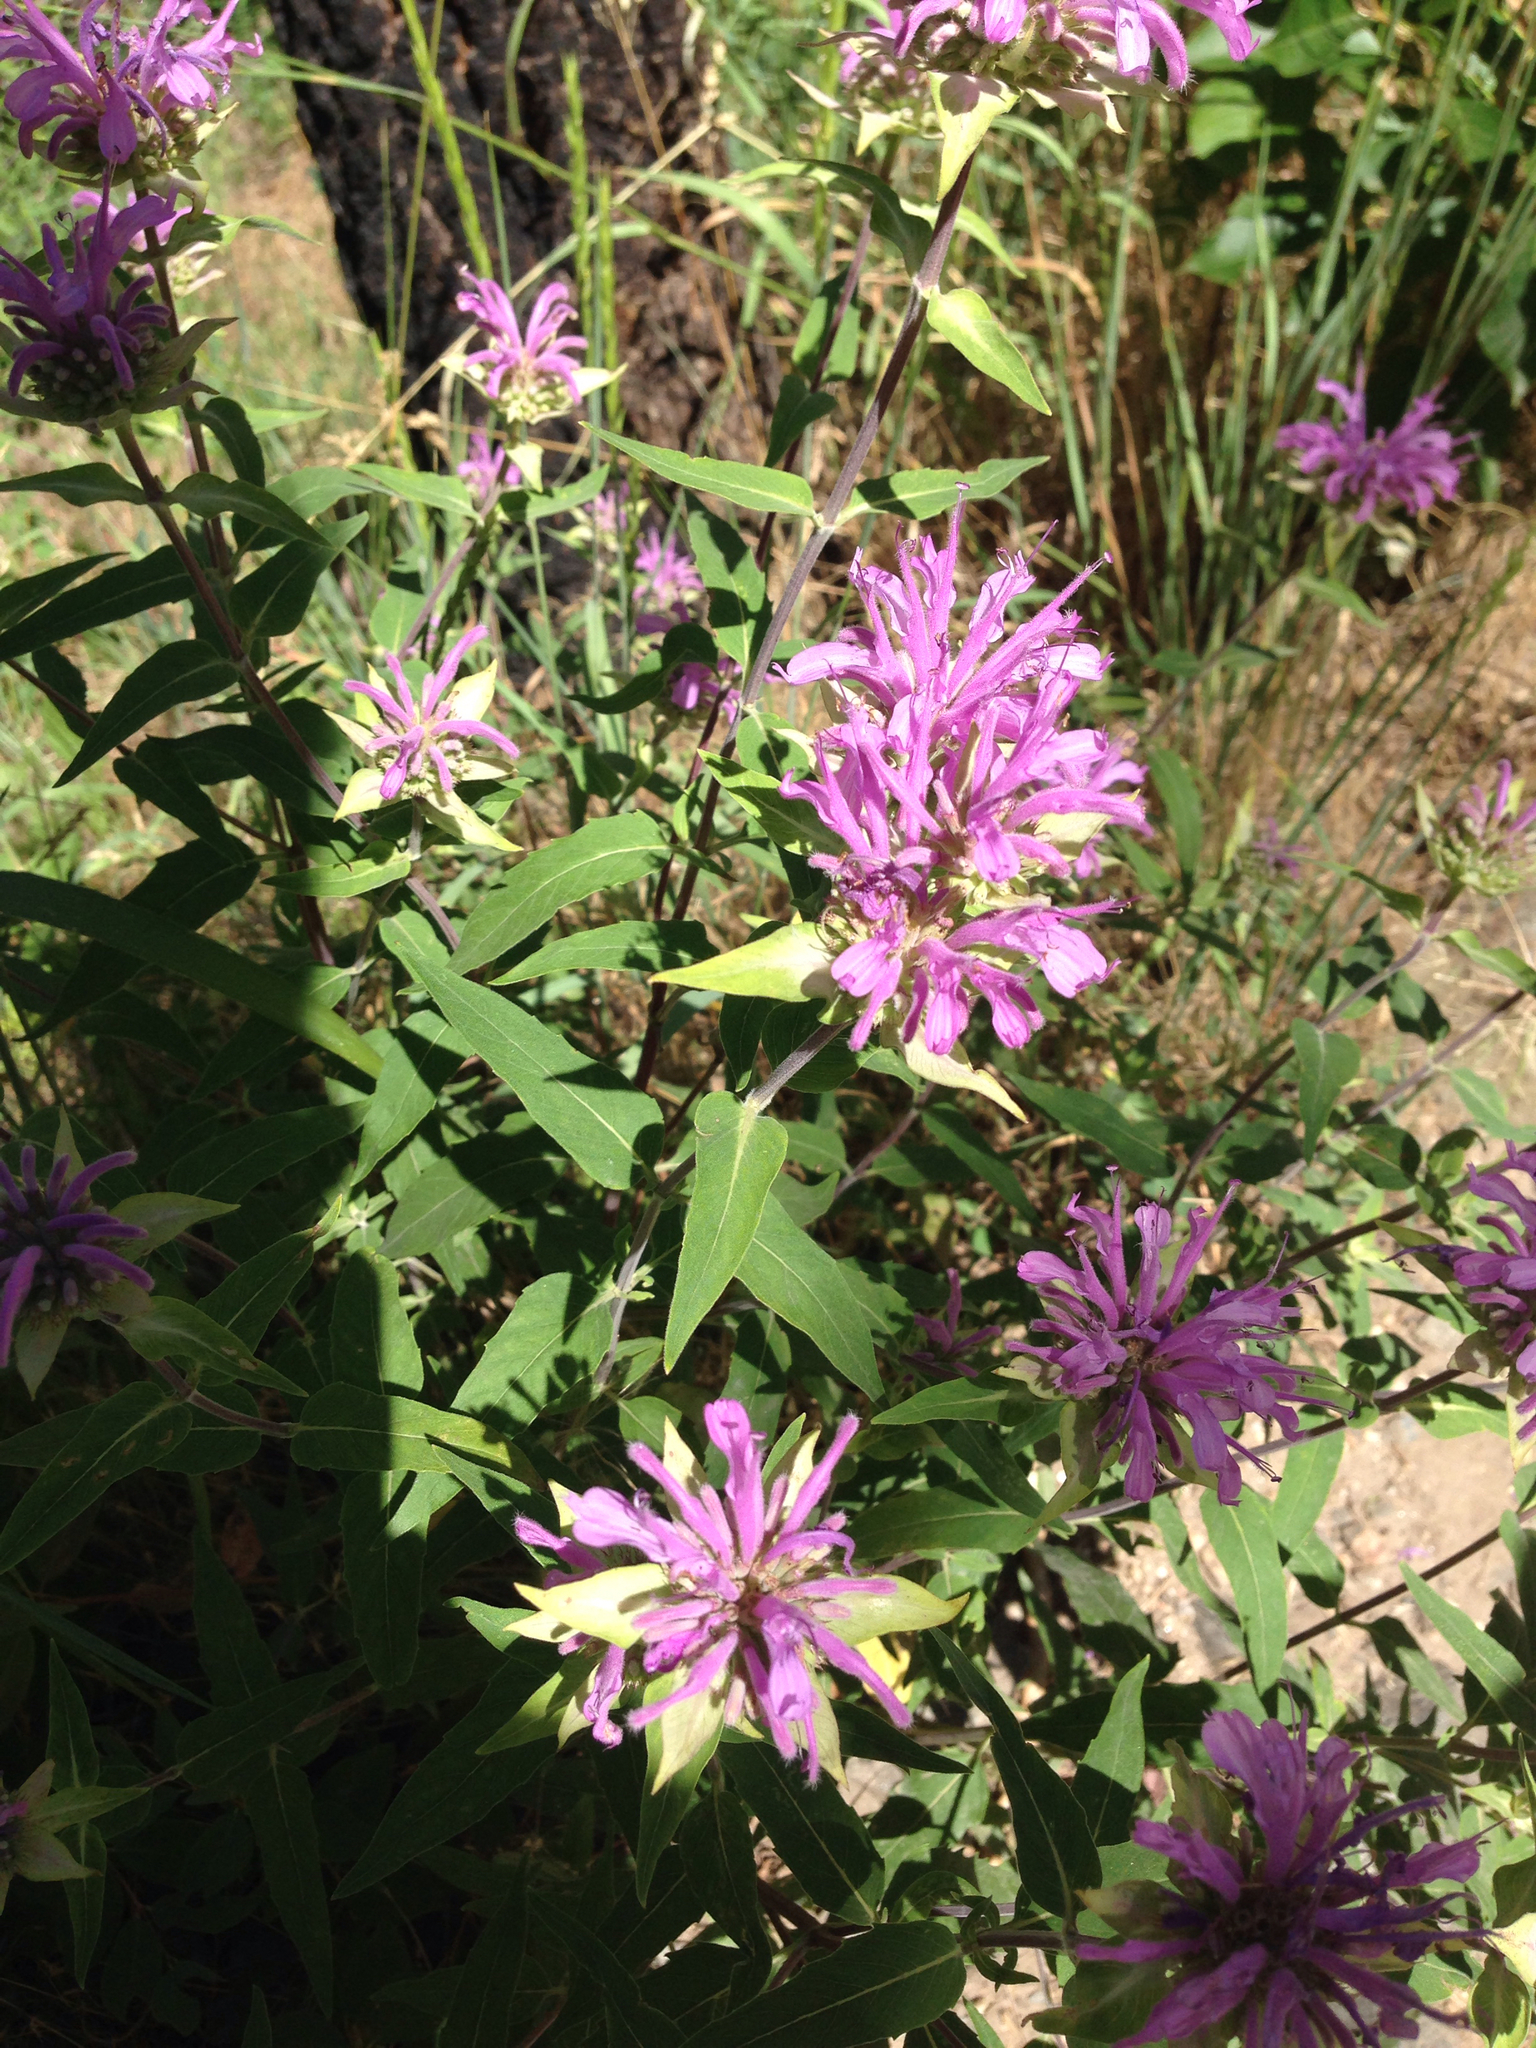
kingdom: Plantae
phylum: Tracheophyta
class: Magnoliopsida
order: Lamiales
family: Lamiaceae
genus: Monarda
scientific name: Monarda fistulosa
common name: Purple beebalm
